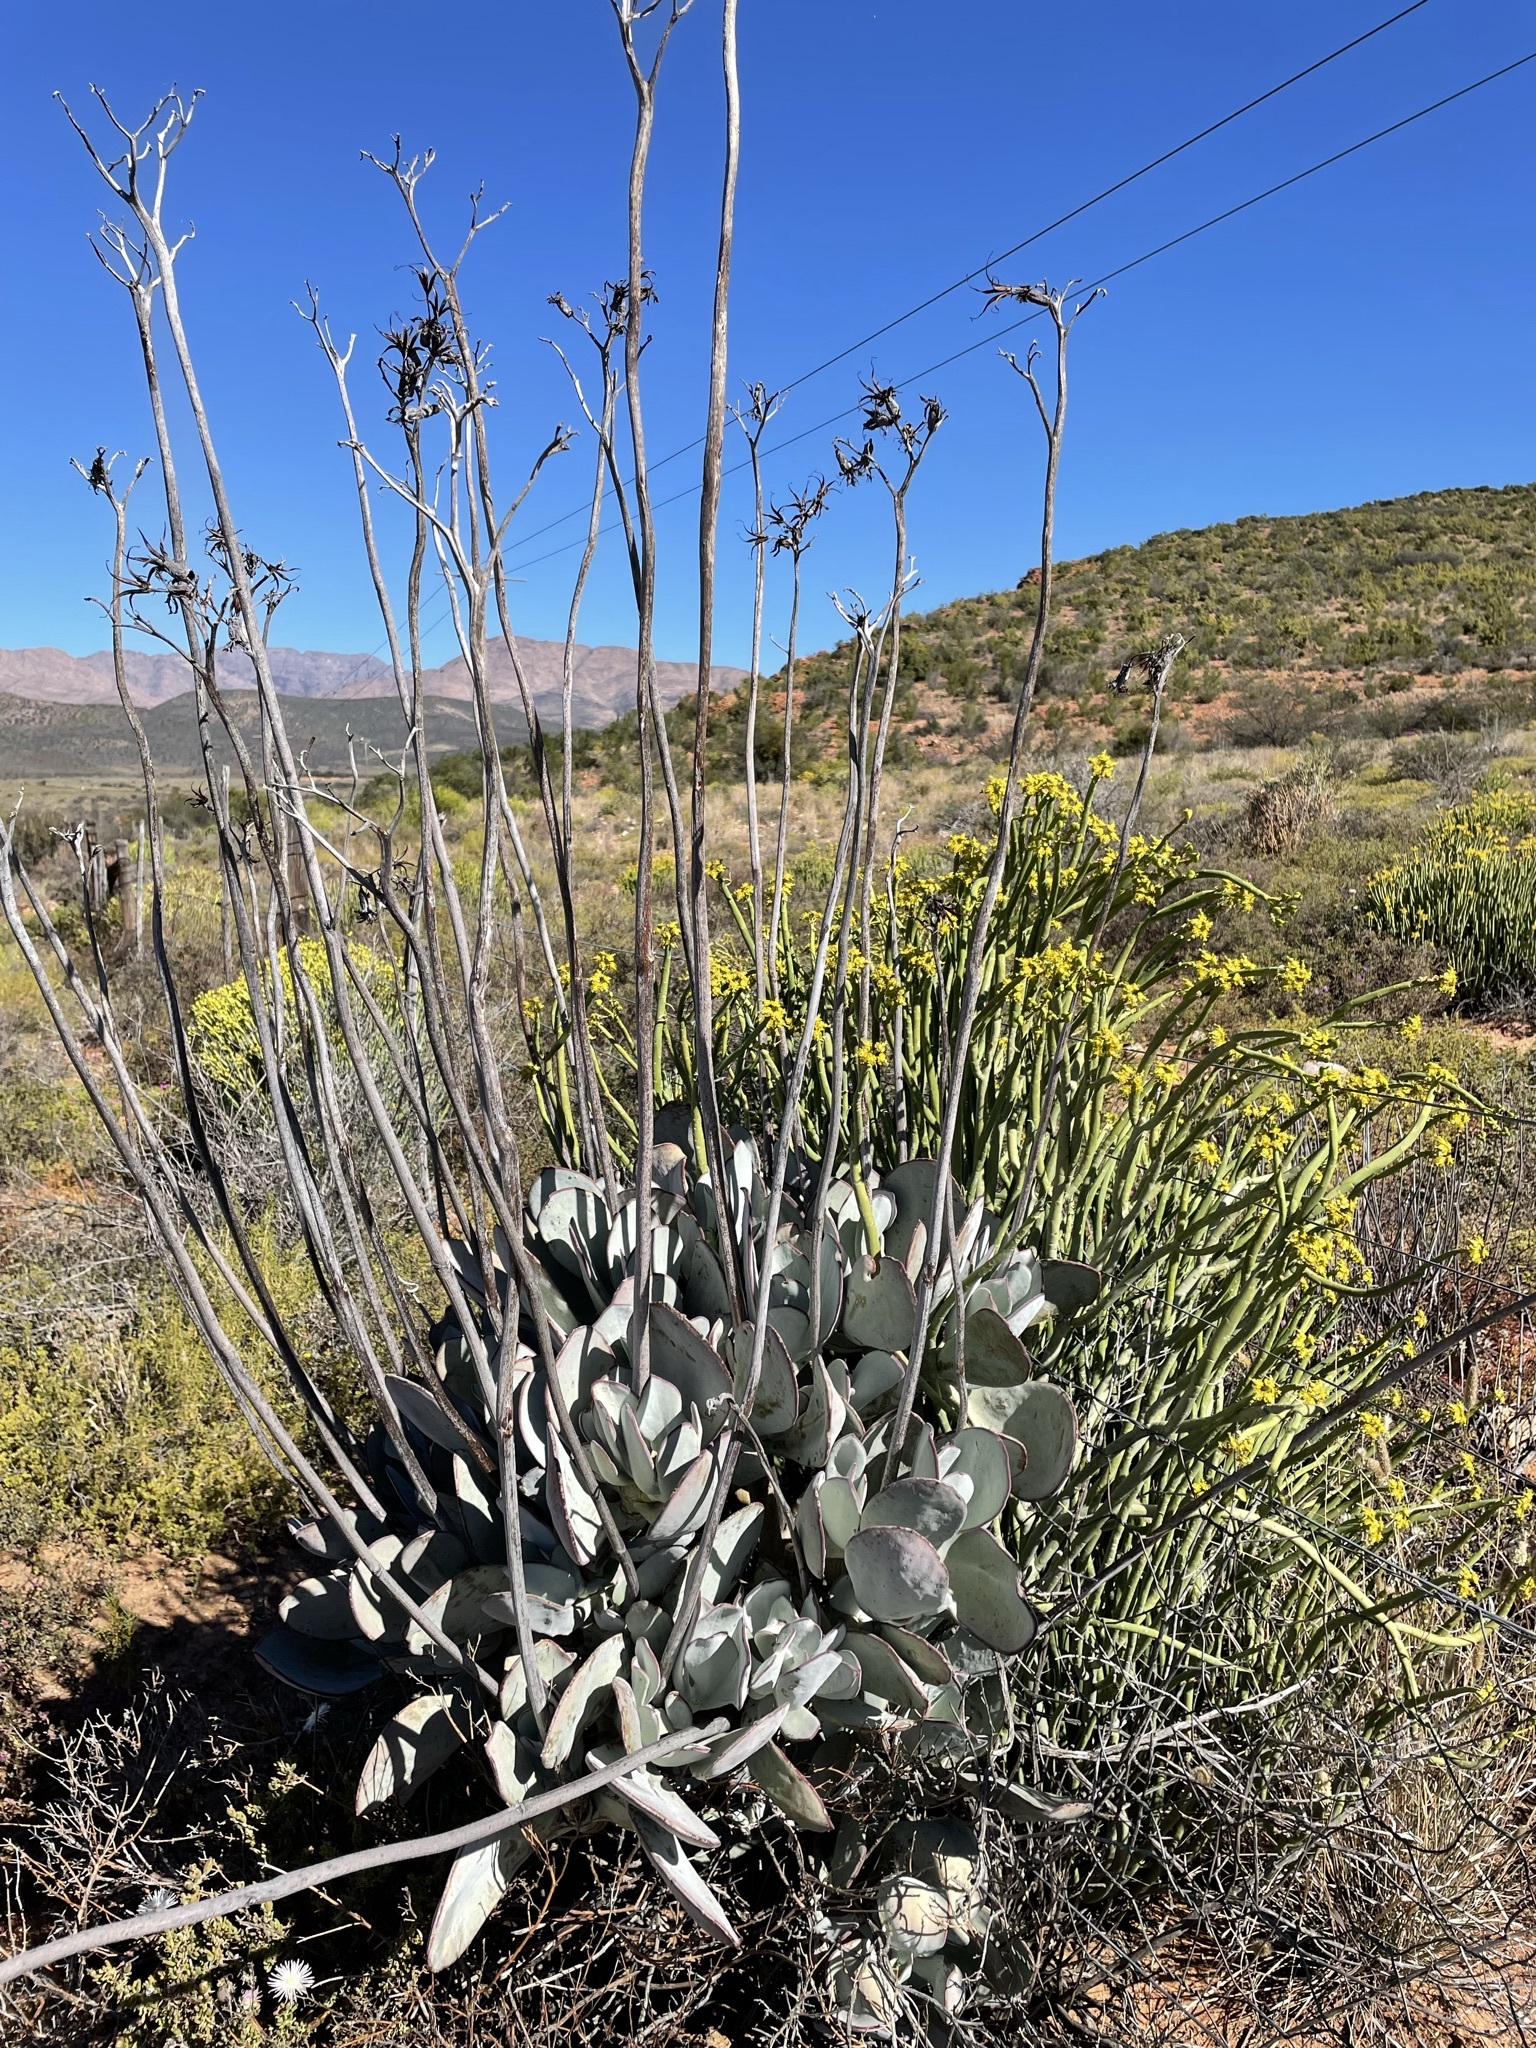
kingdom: Plantae
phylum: Tracheophyta
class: Magnoliopsida
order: Saxifragales
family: Crassulaceae
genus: Cotyledon
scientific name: Cotyledon orbiculata
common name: Pig's ear
